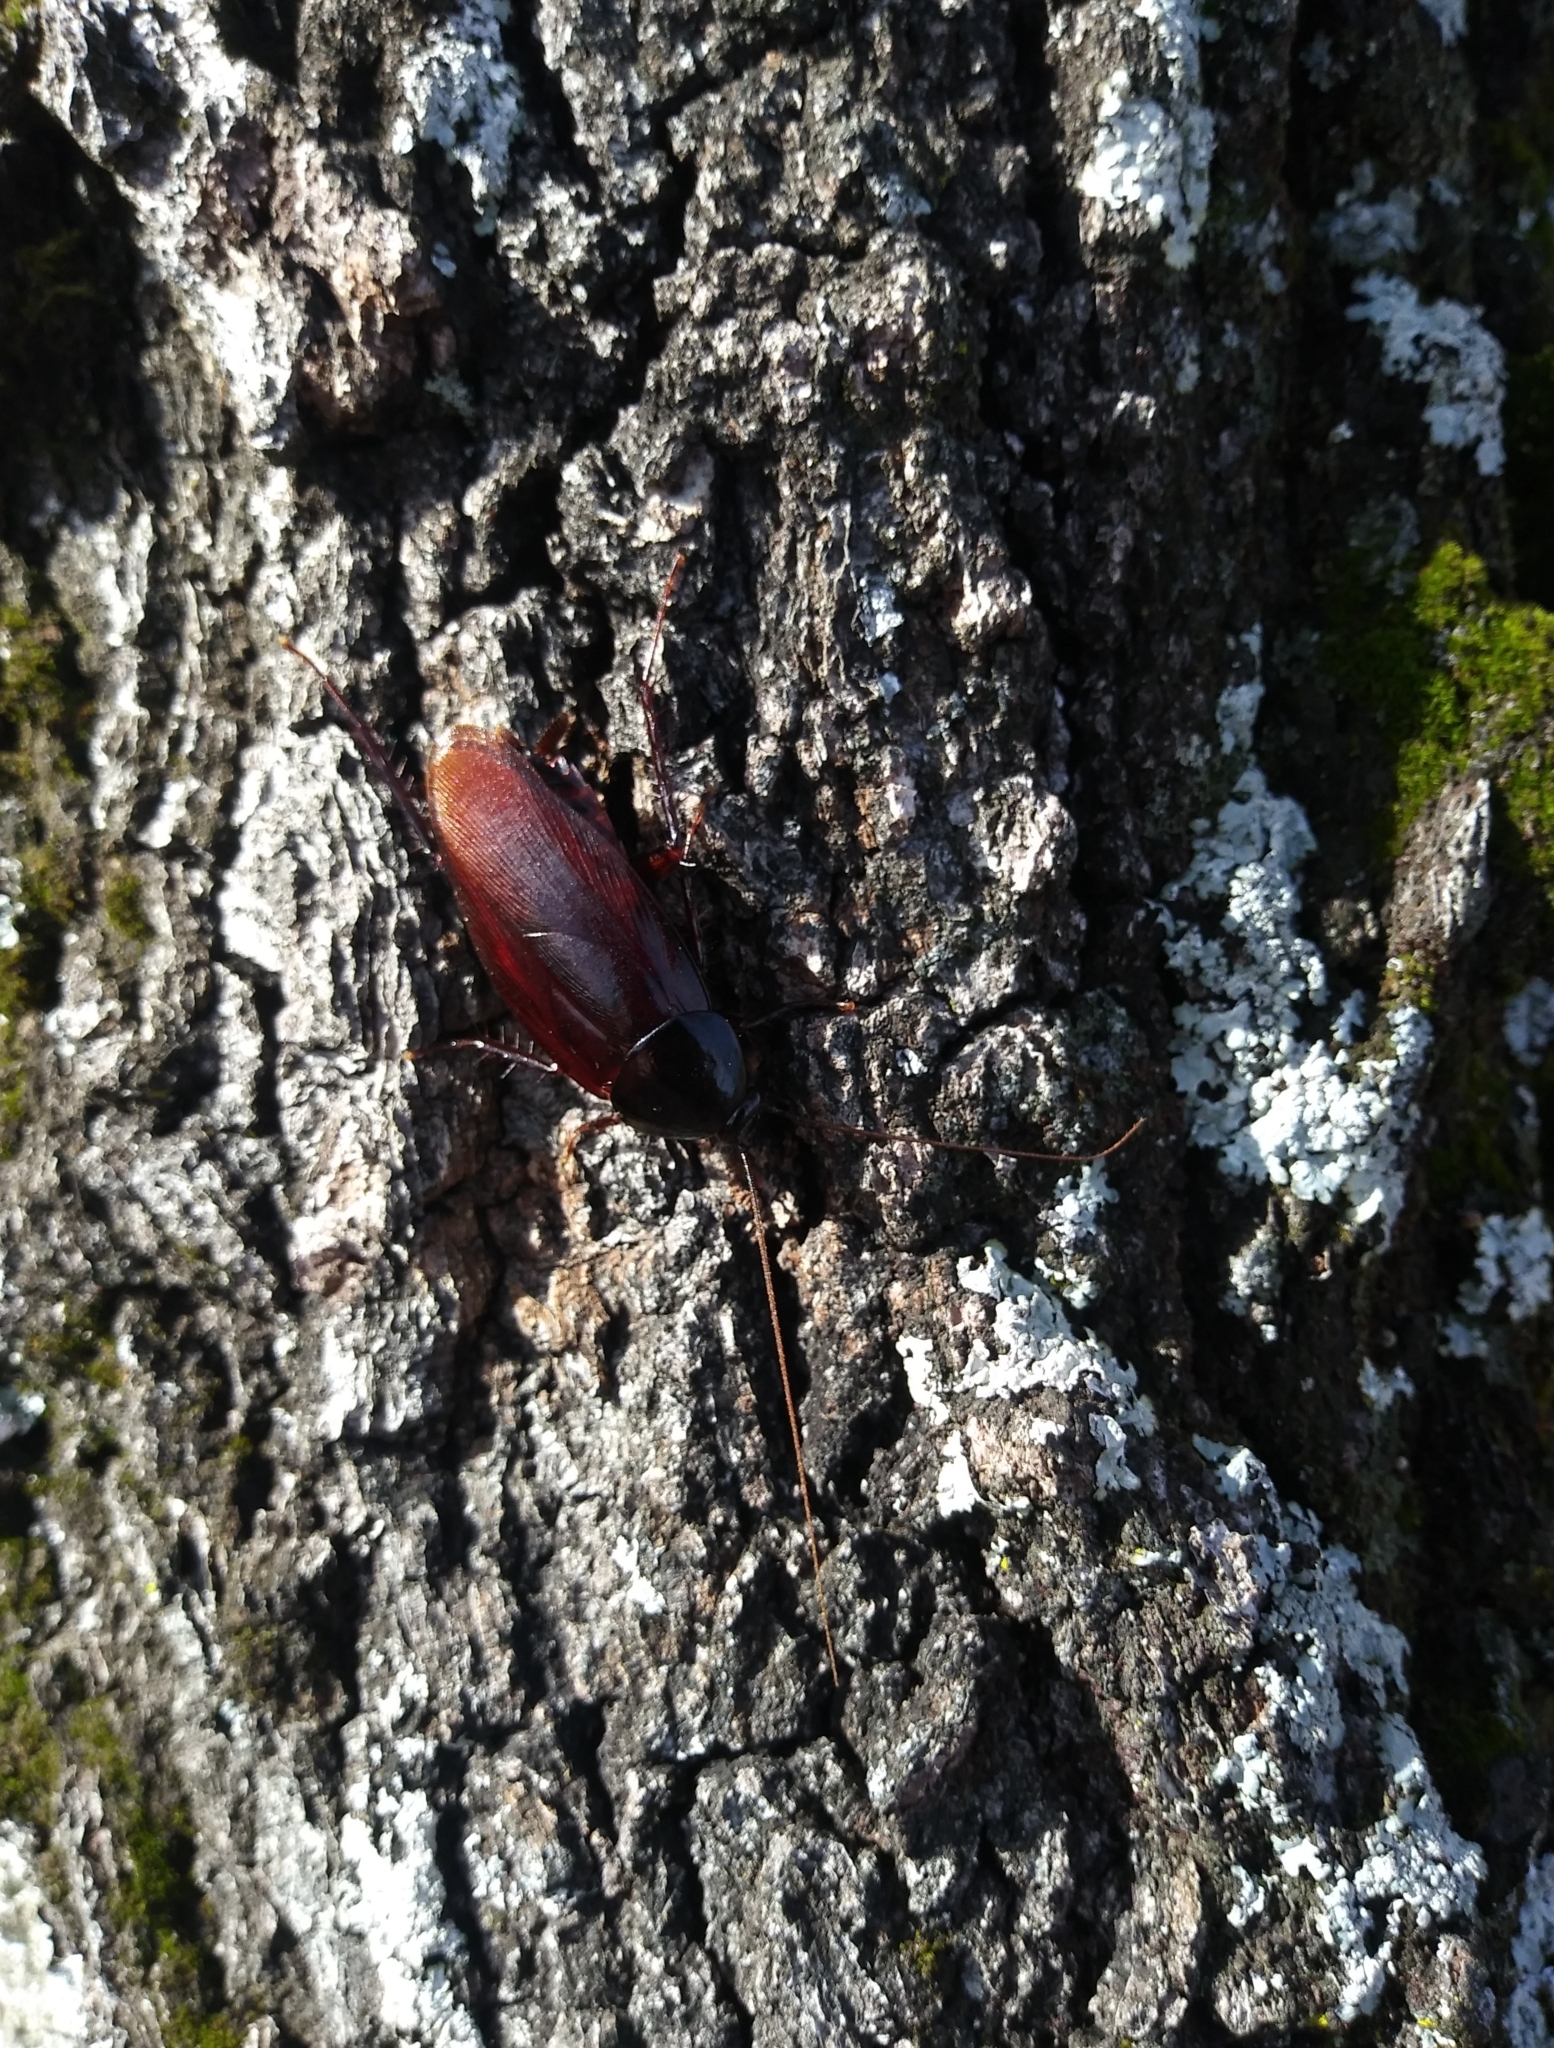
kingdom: Animalia
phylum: Arthropoda
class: Insecta
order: Blattodea
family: Blattidae
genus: Periplaneta
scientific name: Periplaneta fuliginosa
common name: Smokeybrown cockroad
